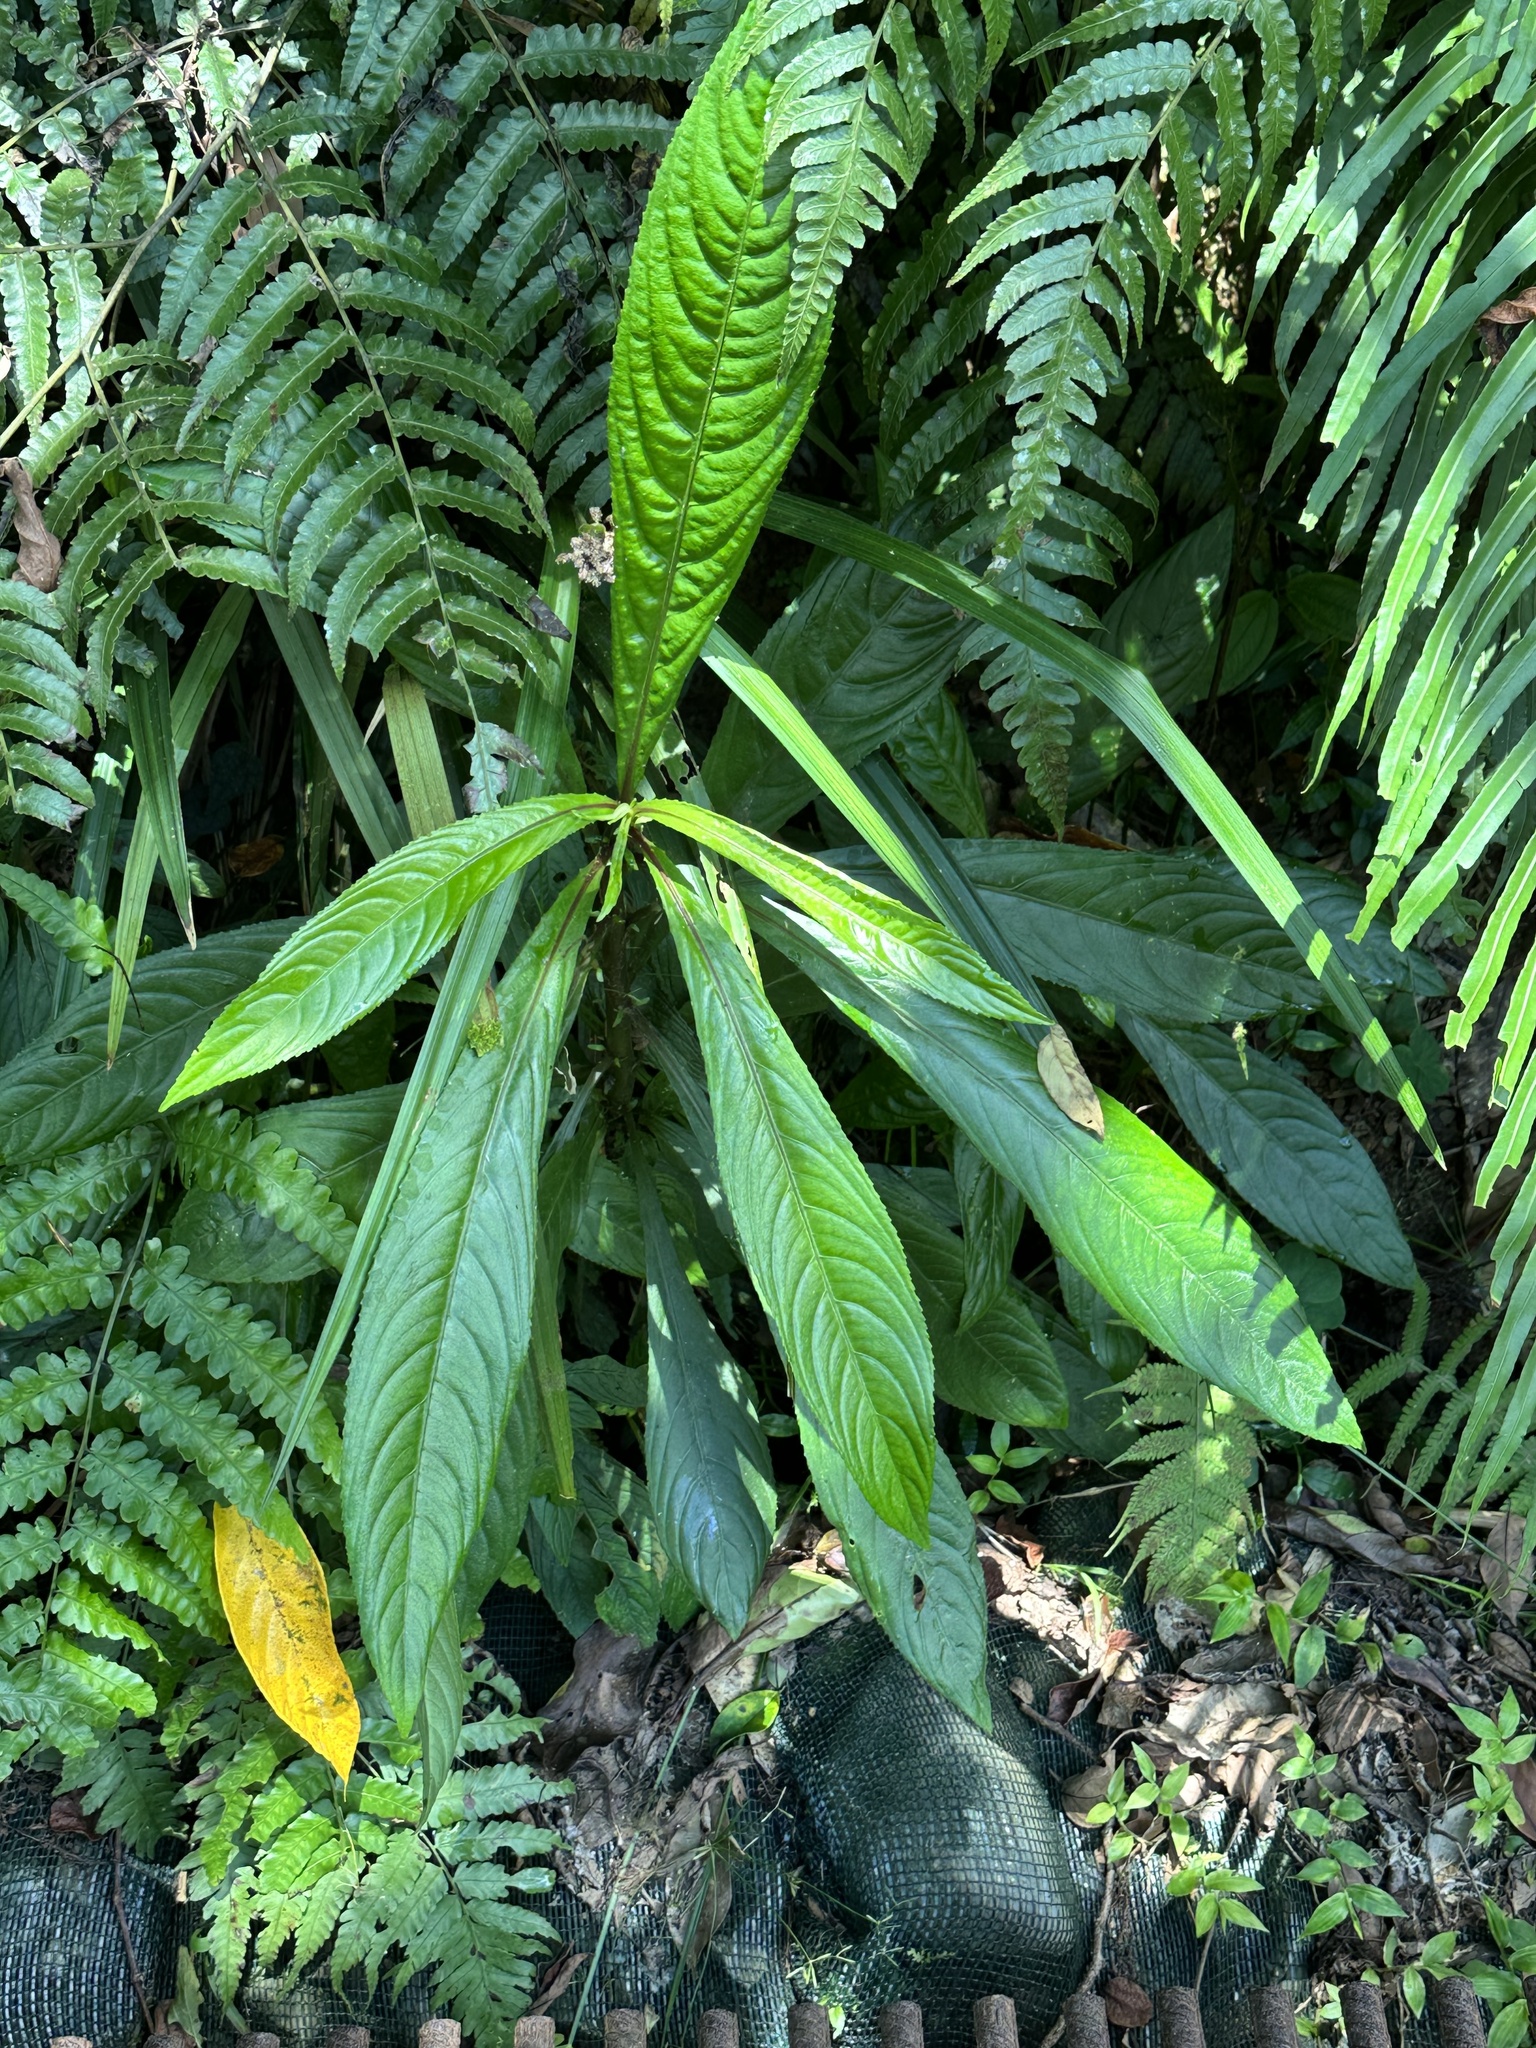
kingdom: Plantae
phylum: Tracheophyta
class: Magnoliopsida
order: Asterales
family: Asteraceae
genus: Blumea
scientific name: Blumea lanceolaria
